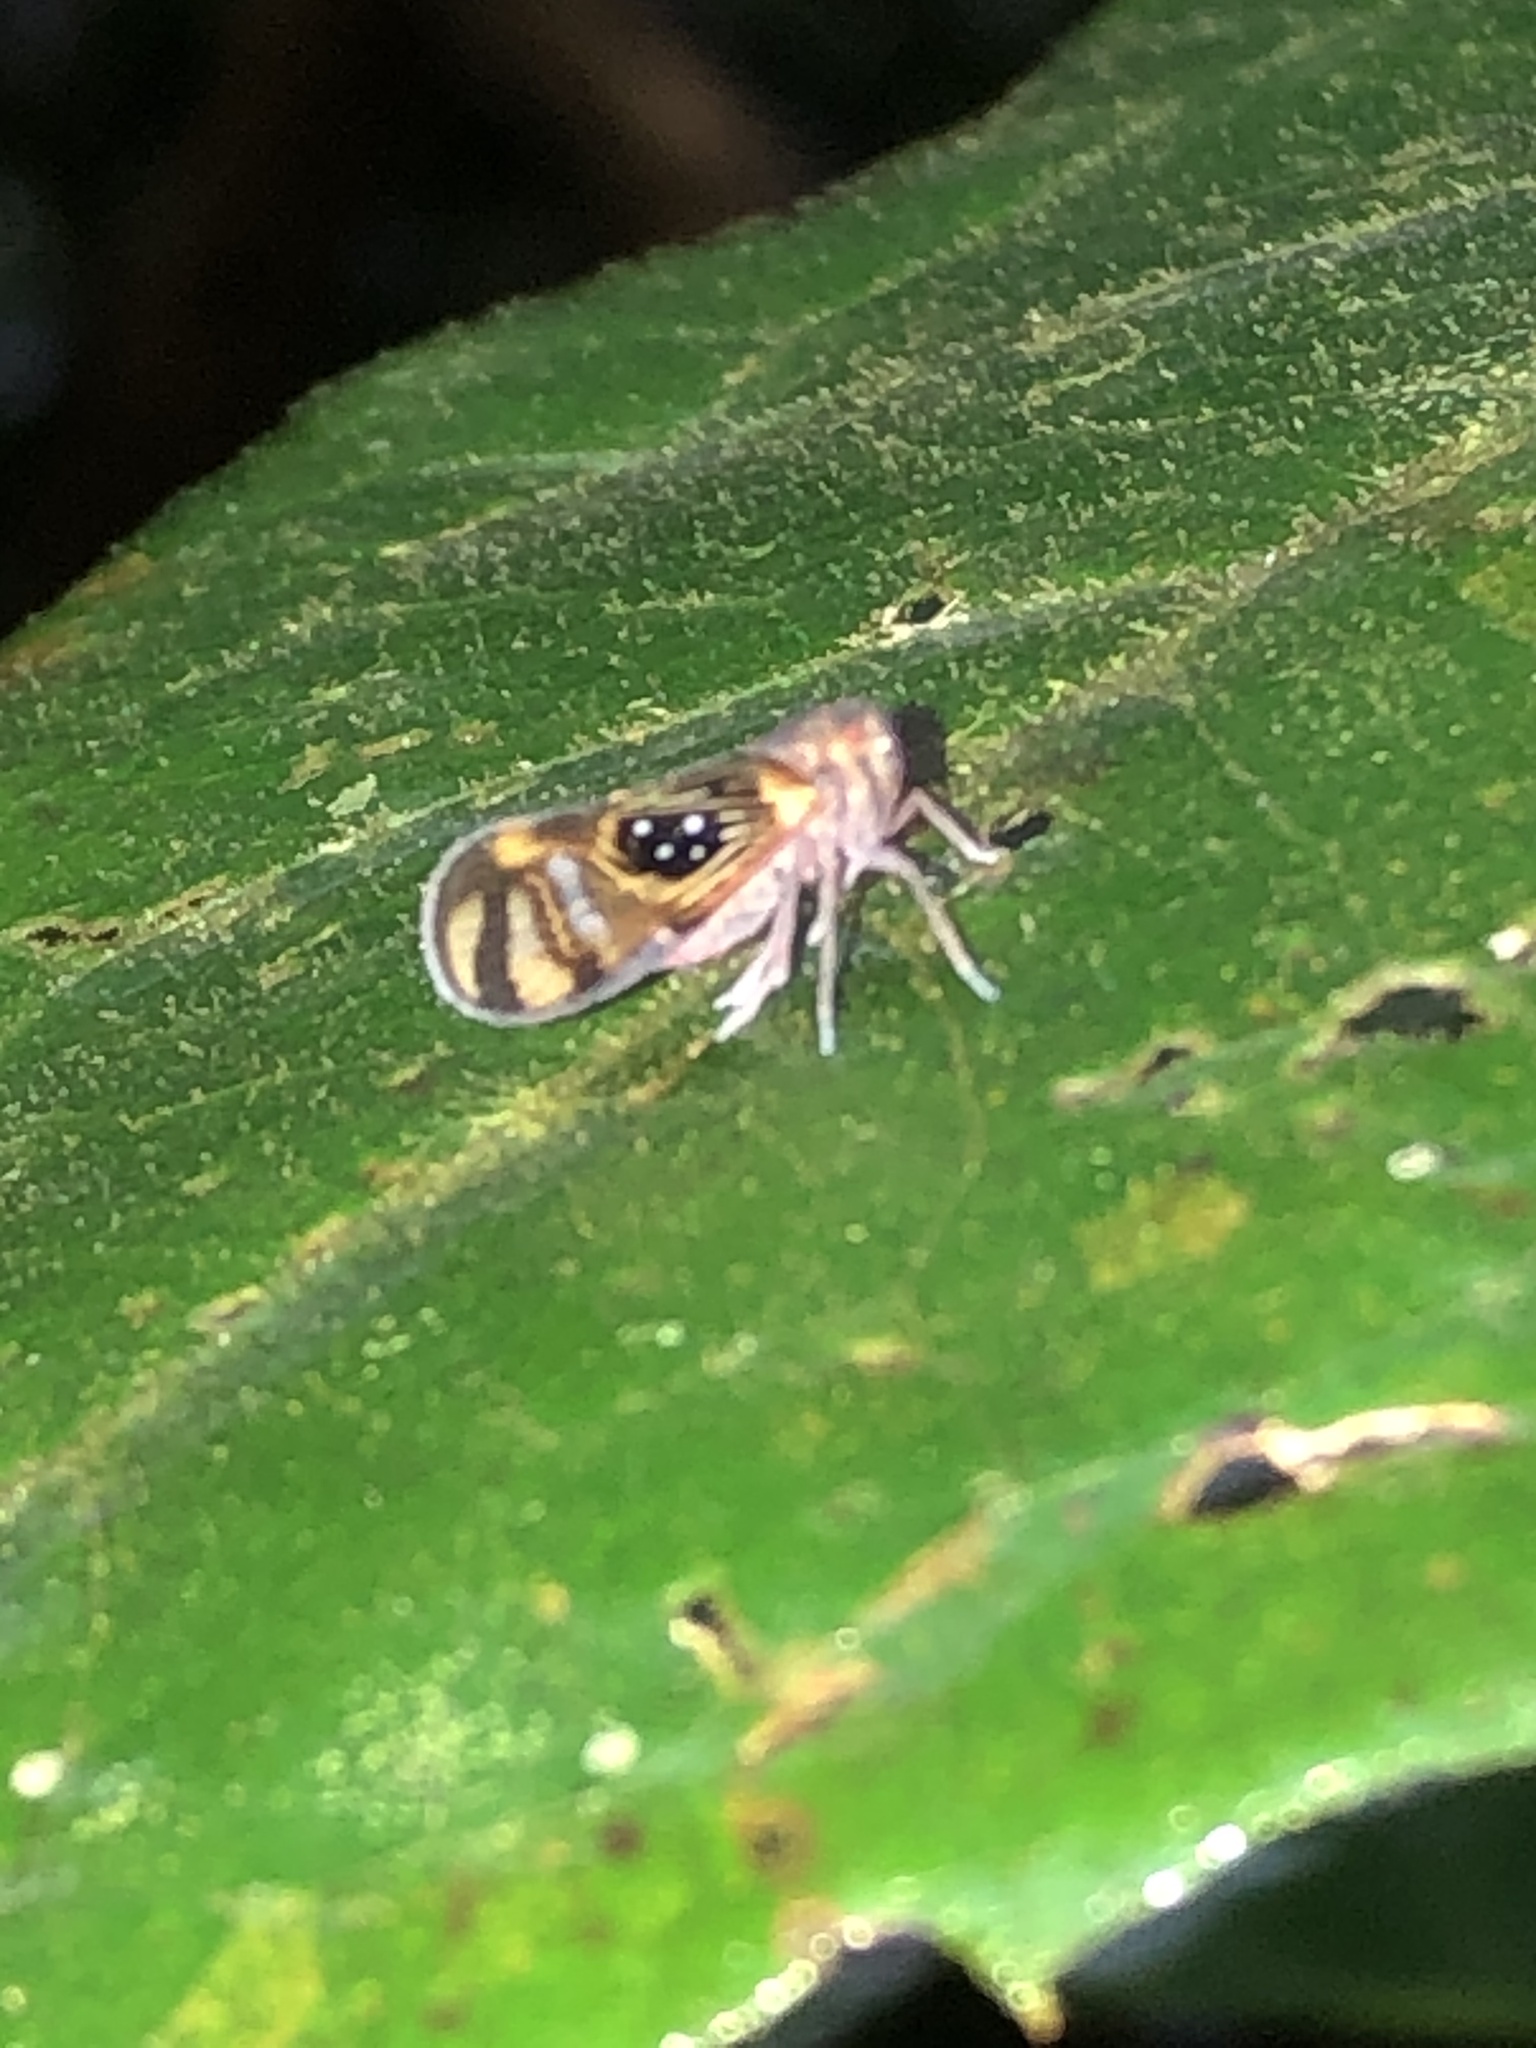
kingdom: Animalia
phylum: Arthropoda
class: Insecta
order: Hemiptera
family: Cixiidae
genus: Pintalia
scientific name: Pintalia
